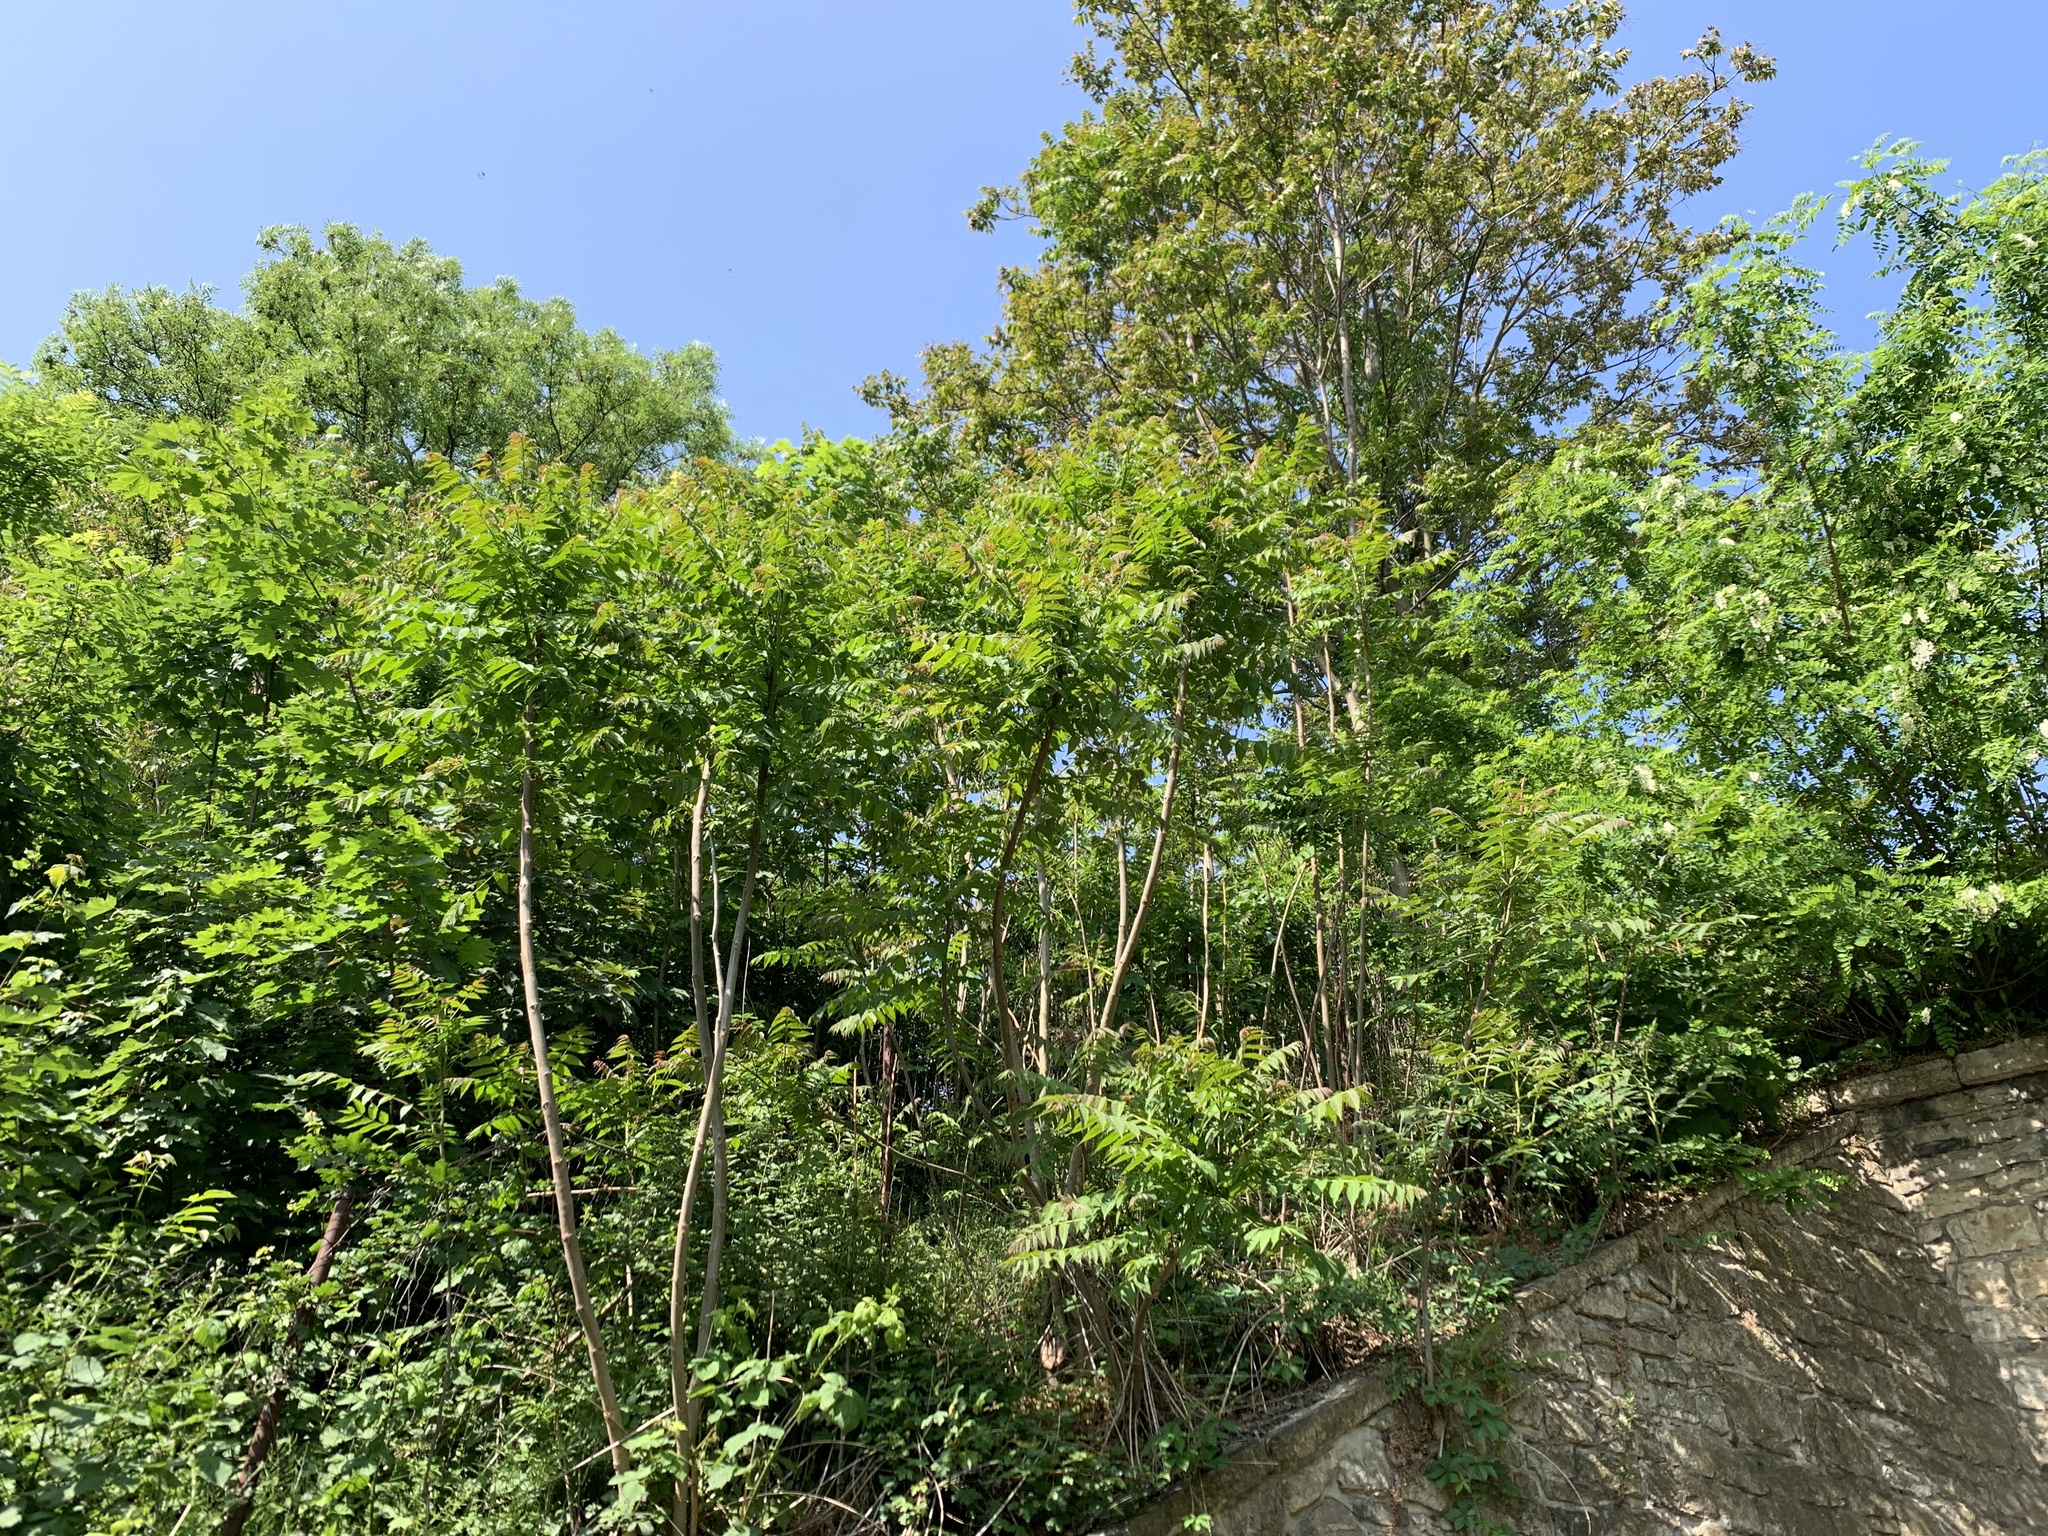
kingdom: Plantae
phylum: Tracheophyta
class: Magnoliopsida
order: Sapindales
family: Simaroubaceae
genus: Ailanthus
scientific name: Ailanthus altissima
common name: Tree-of-heaven
